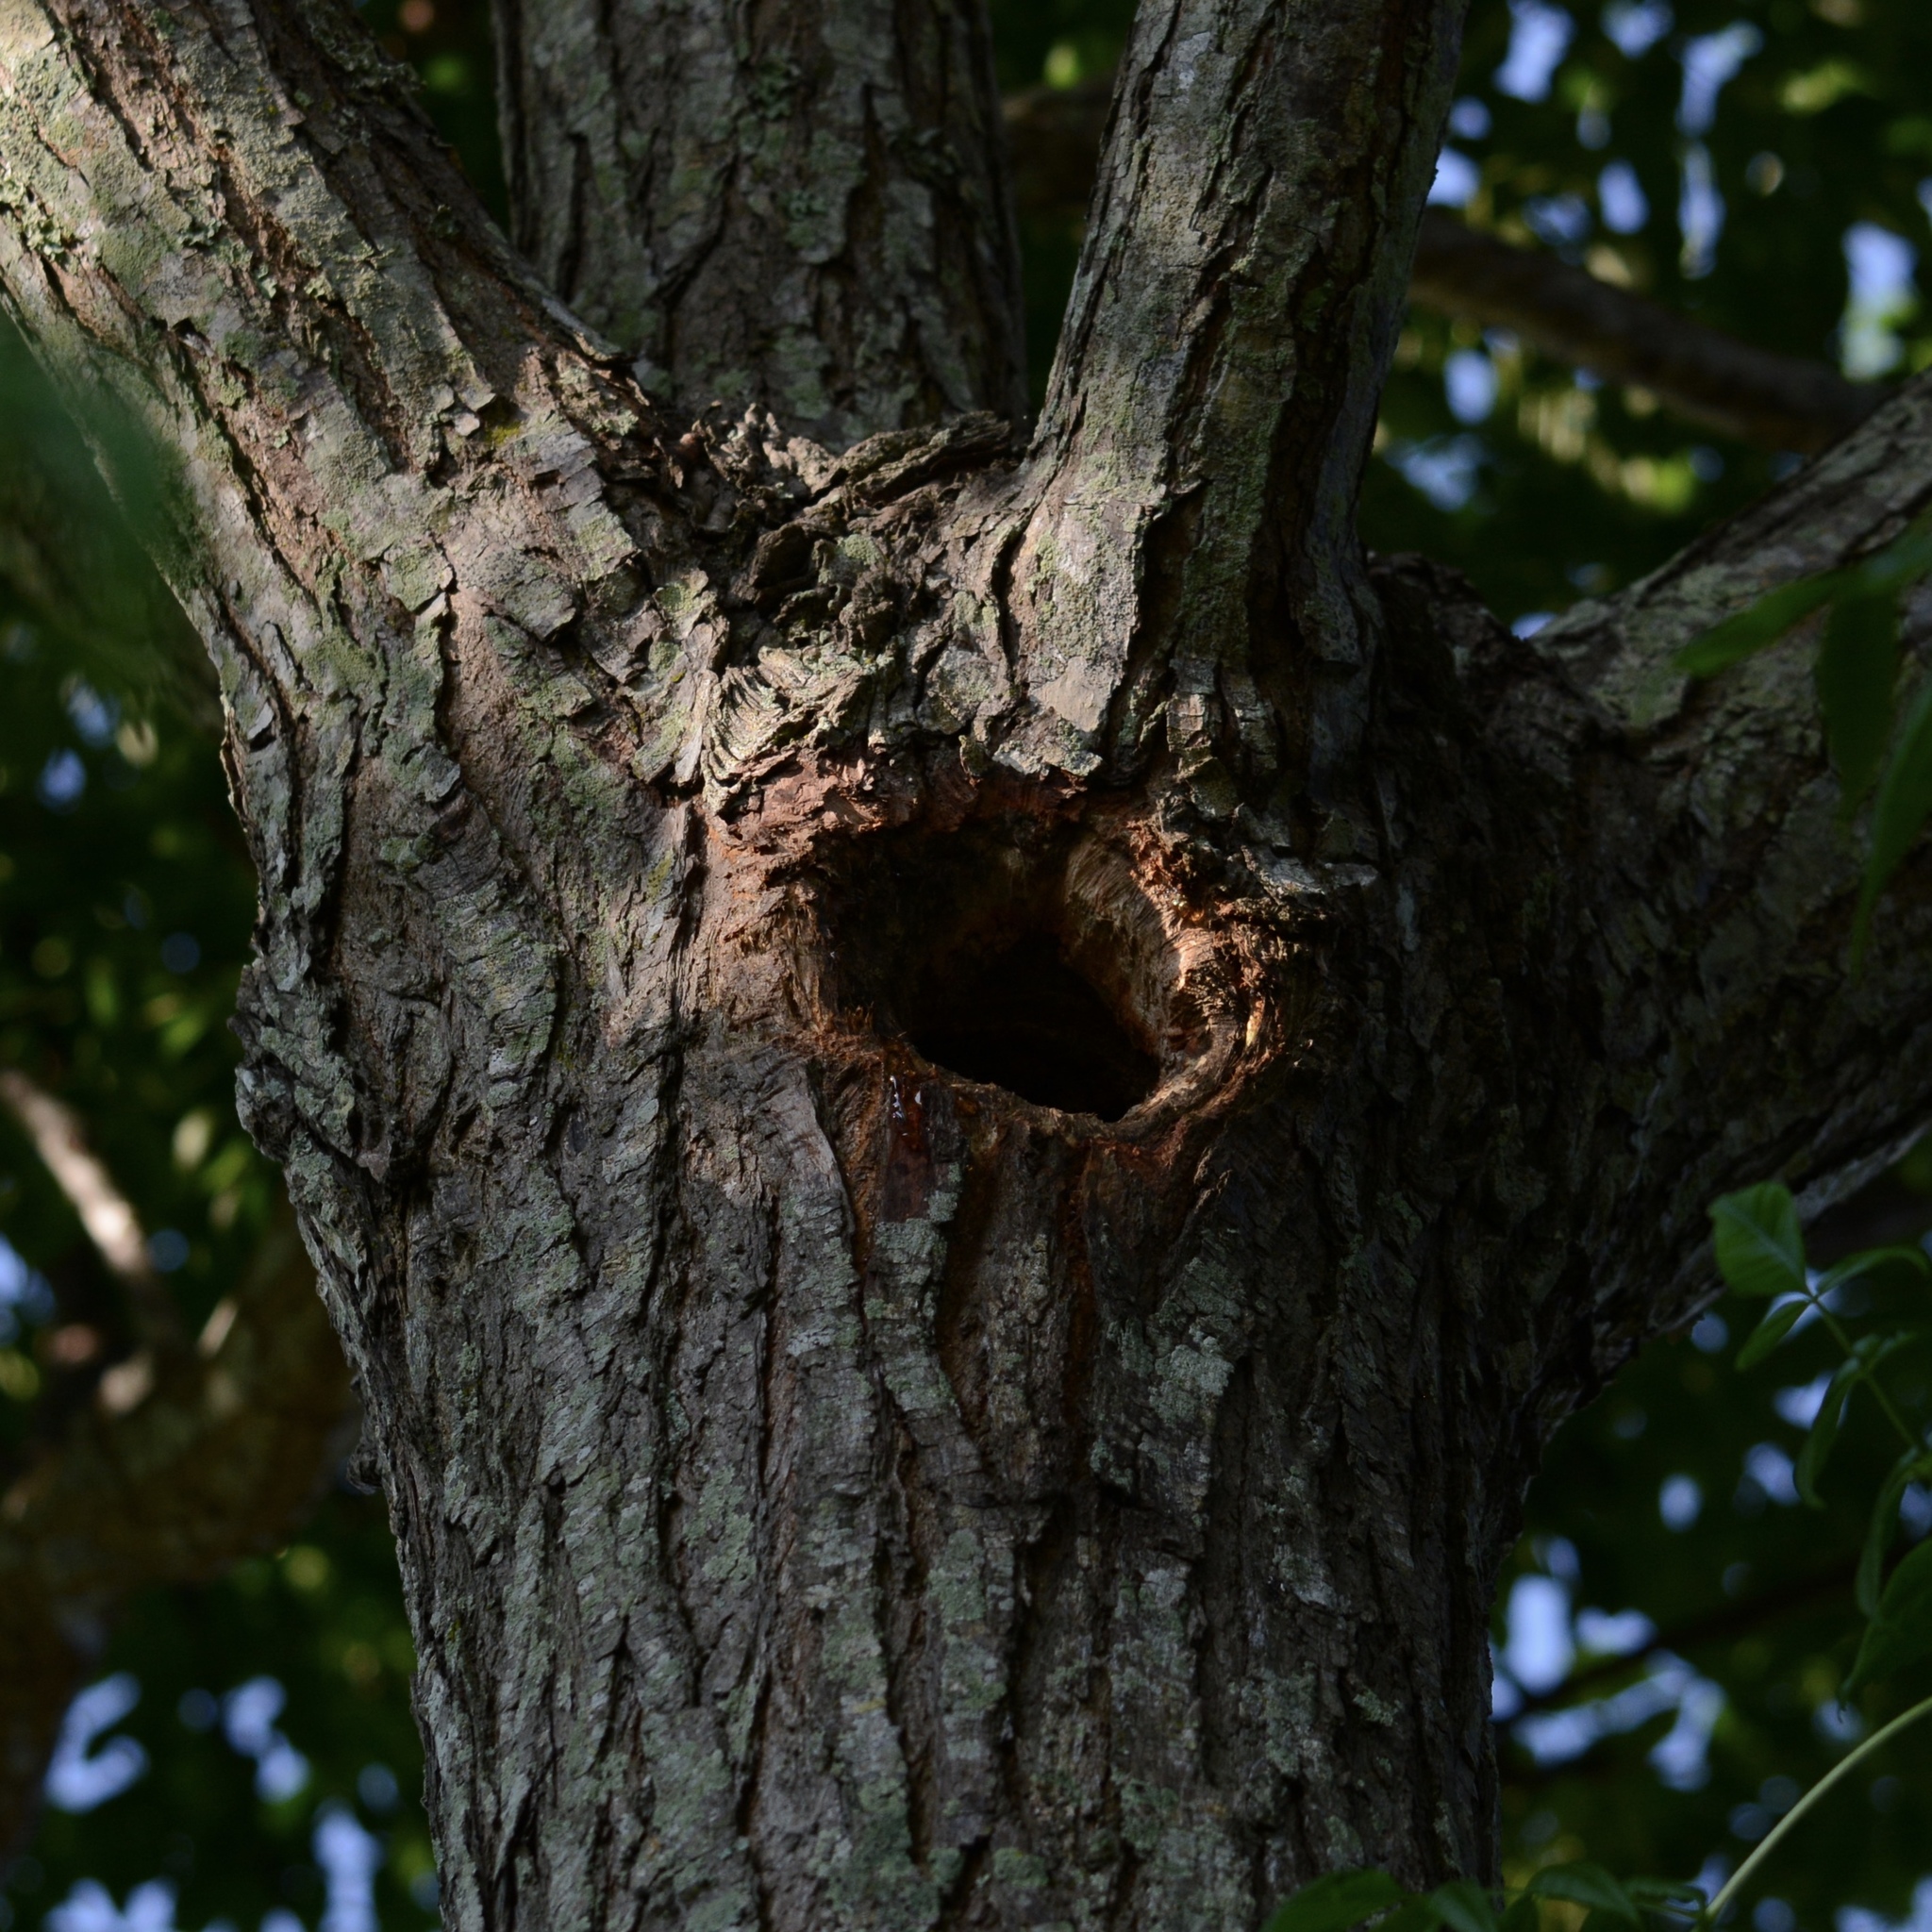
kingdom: Animalia
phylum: Chordata
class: Aves
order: Passeriformes
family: Turdidae
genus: Sialia
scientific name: Sialia sialis
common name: Eastern bluebird
